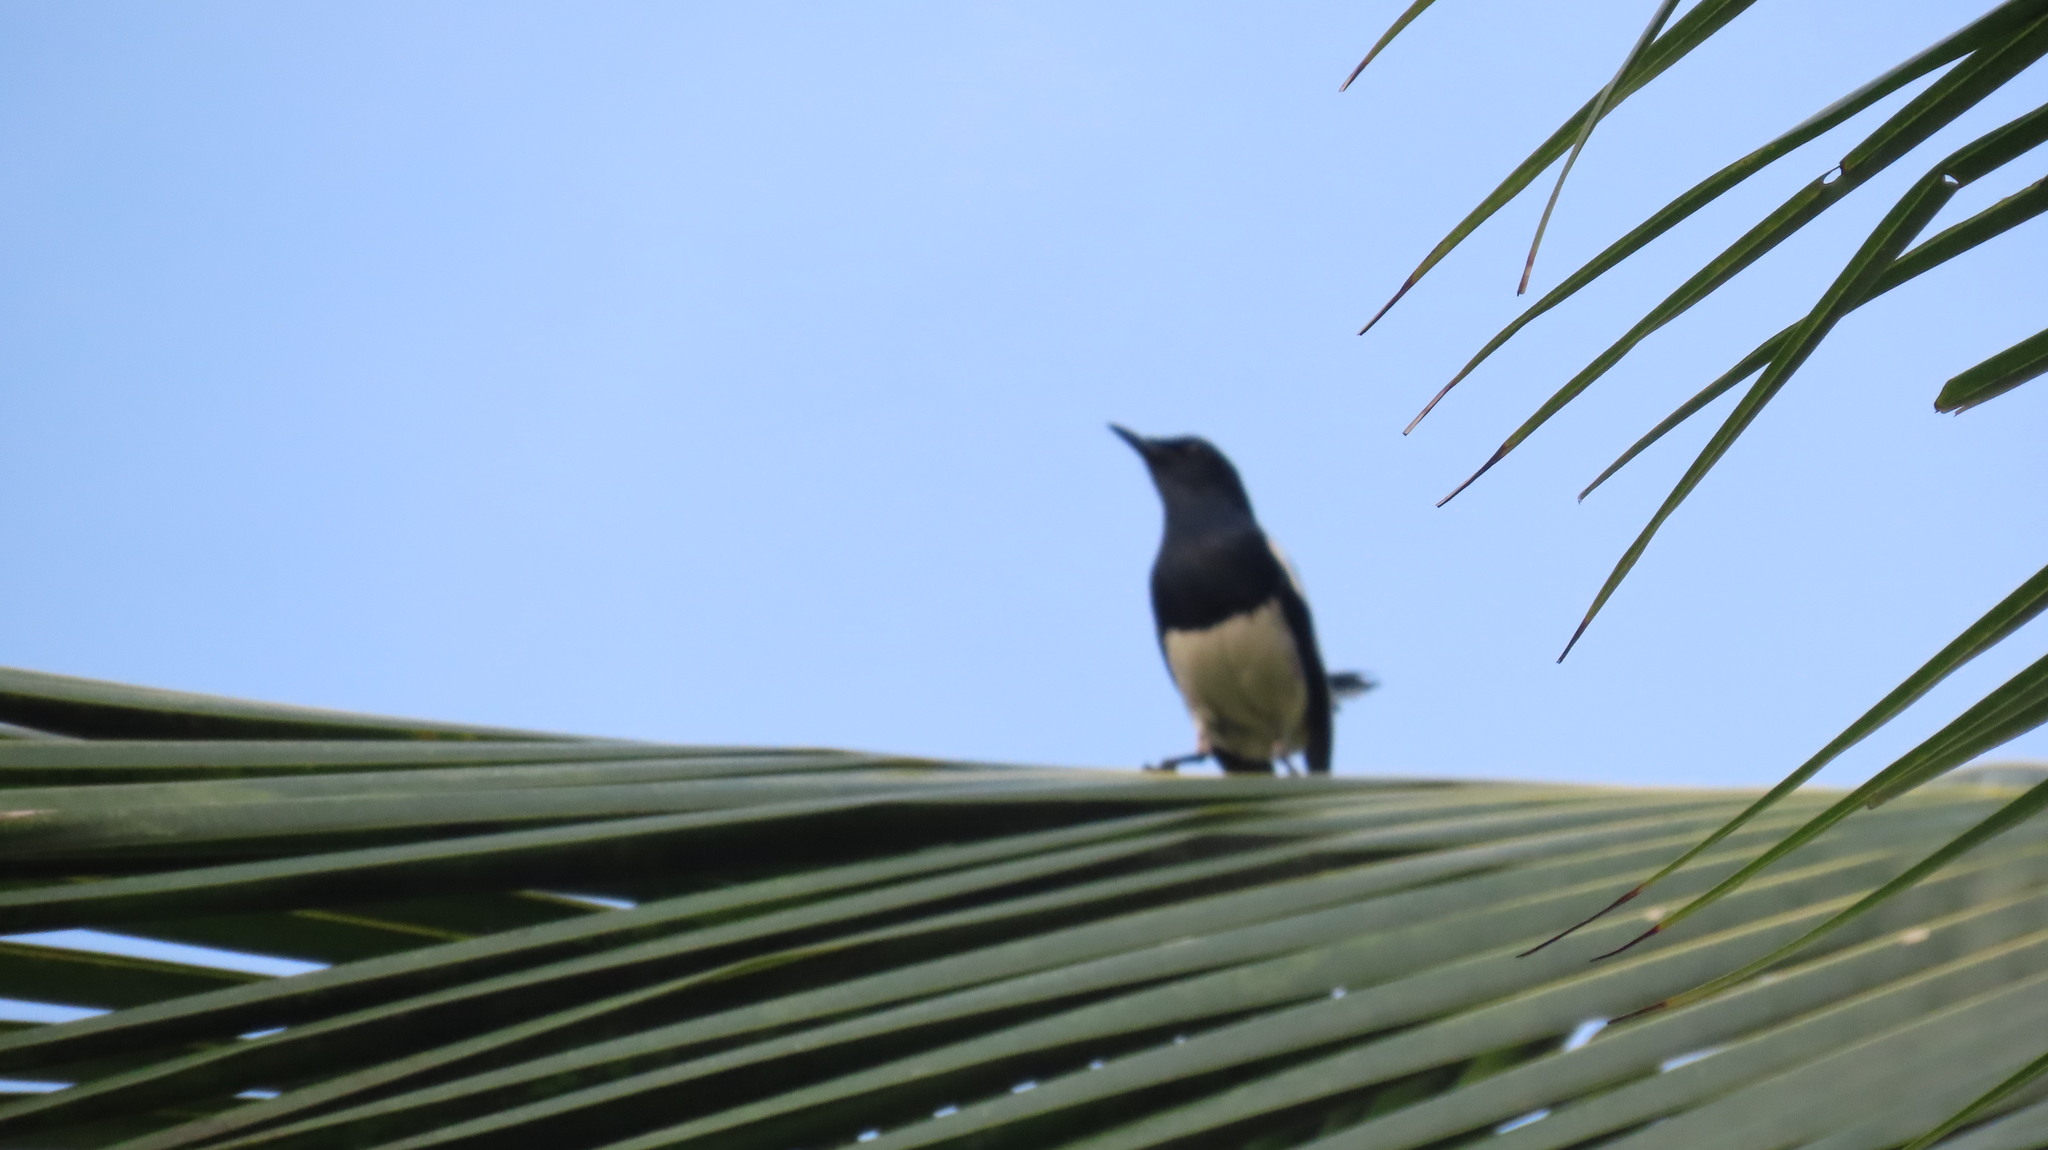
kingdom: Animalia
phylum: Chordata
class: Aves
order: Passeriformes
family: Muscicapidae
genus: Copsychus
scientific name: Copsychus saularis
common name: Oriental magpie-robin
